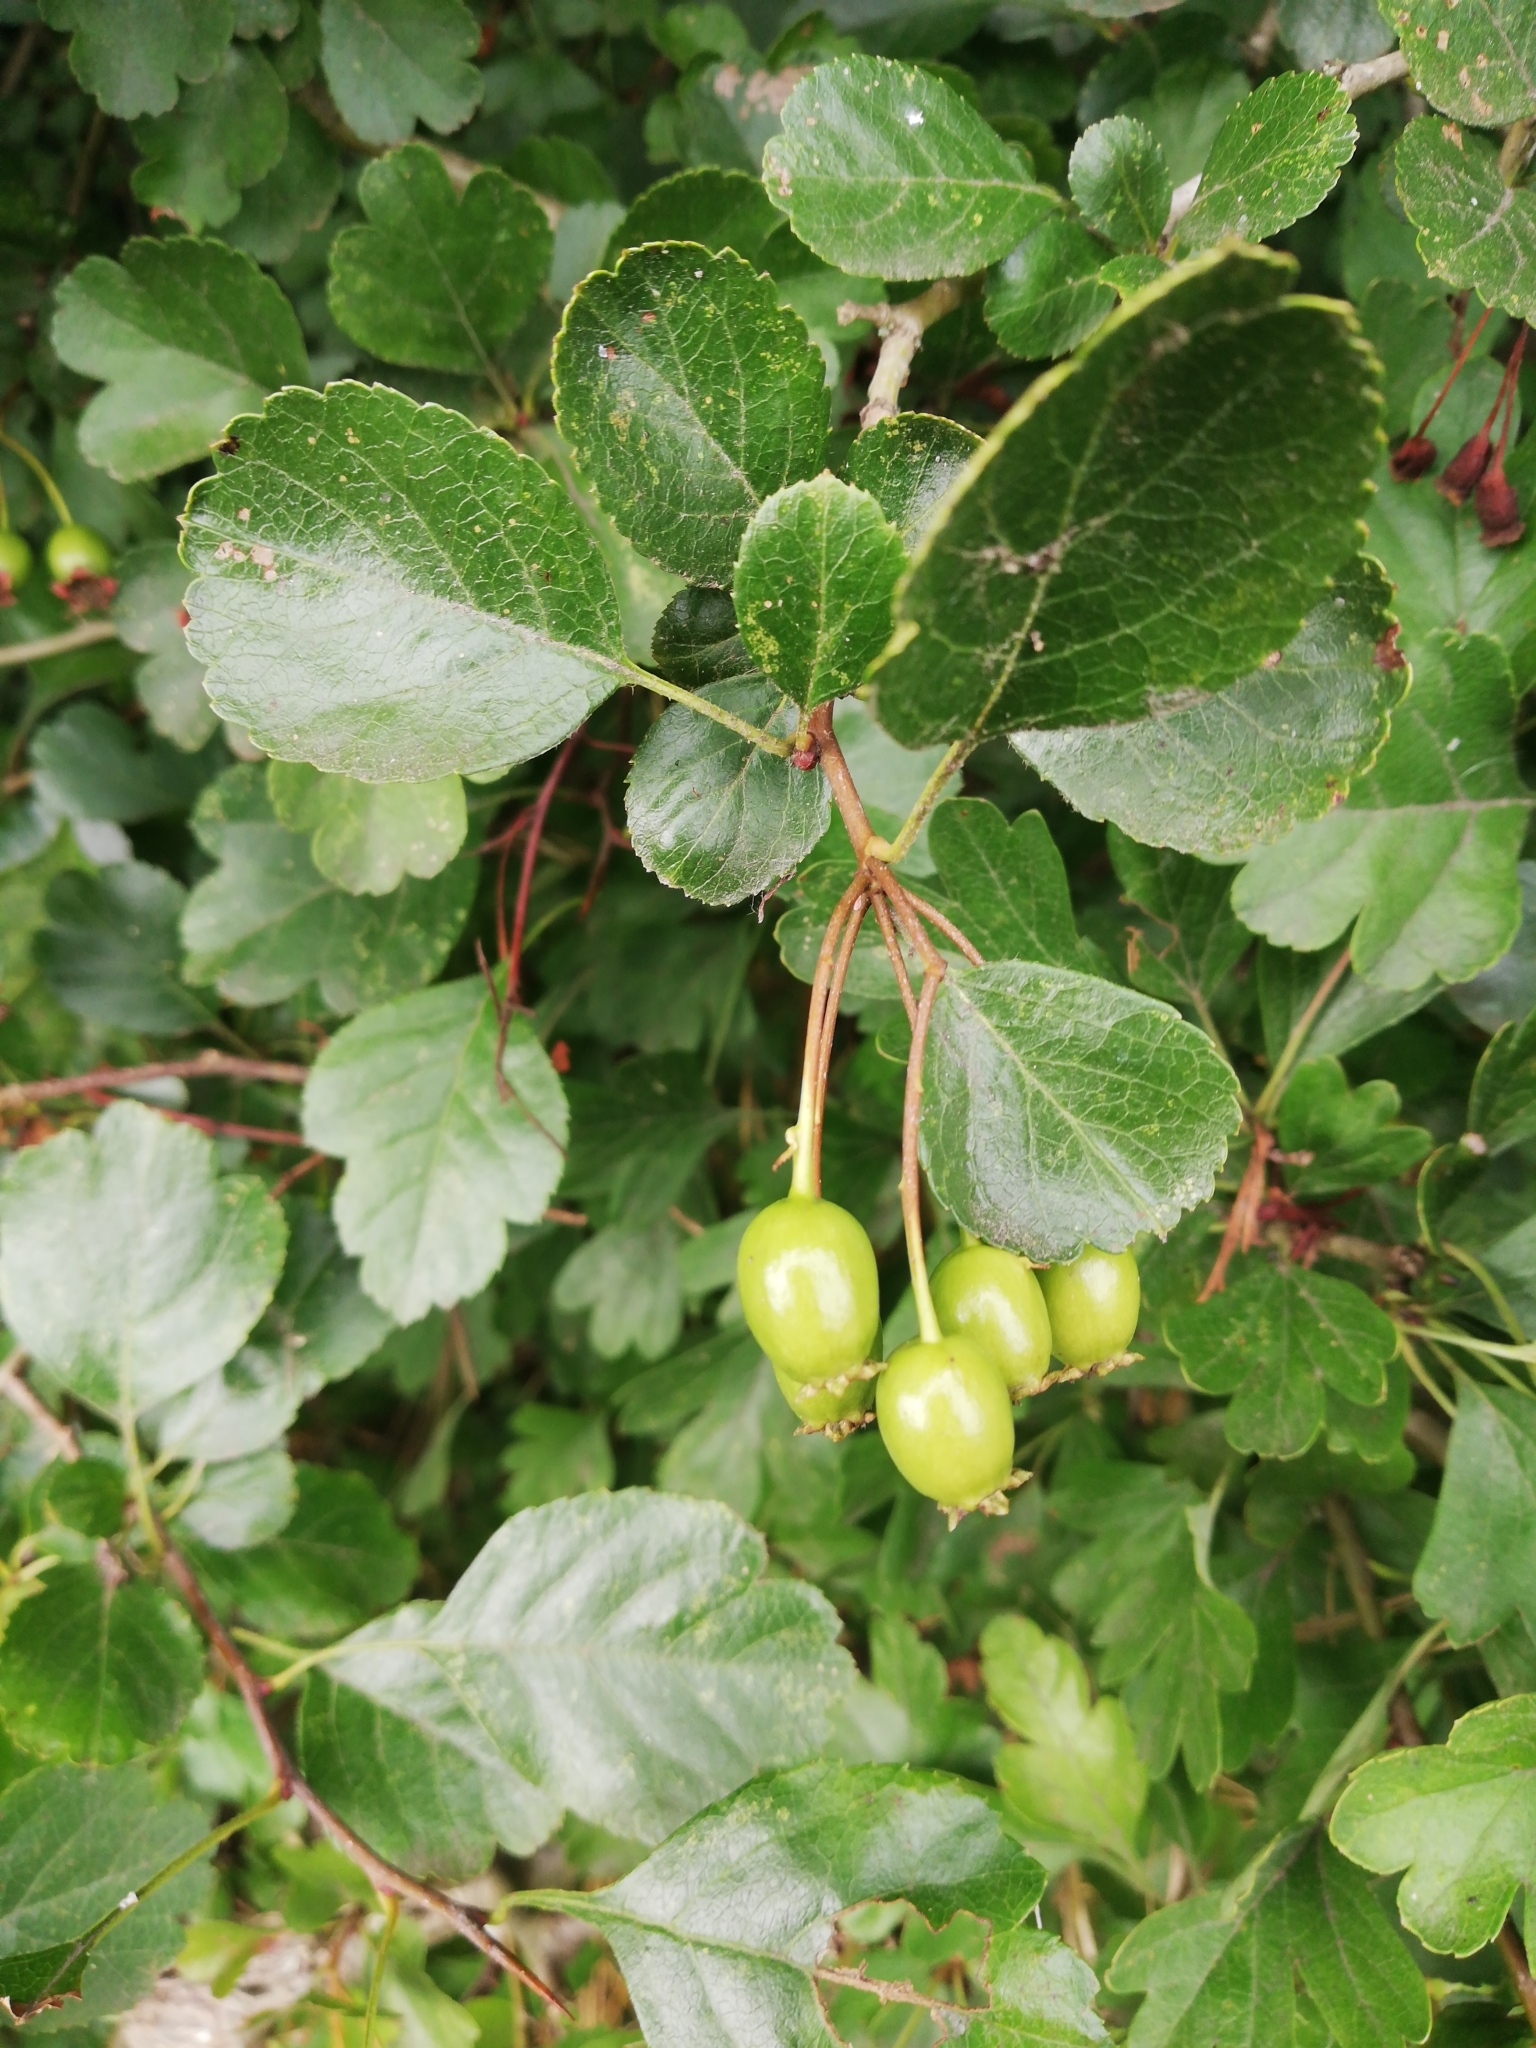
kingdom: Plantae
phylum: Tracheophyta
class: Magnoliopsida
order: Rosales
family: Rosaceae
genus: Crataegus
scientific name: Crataegus laevigata
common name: Midland hawthorn
